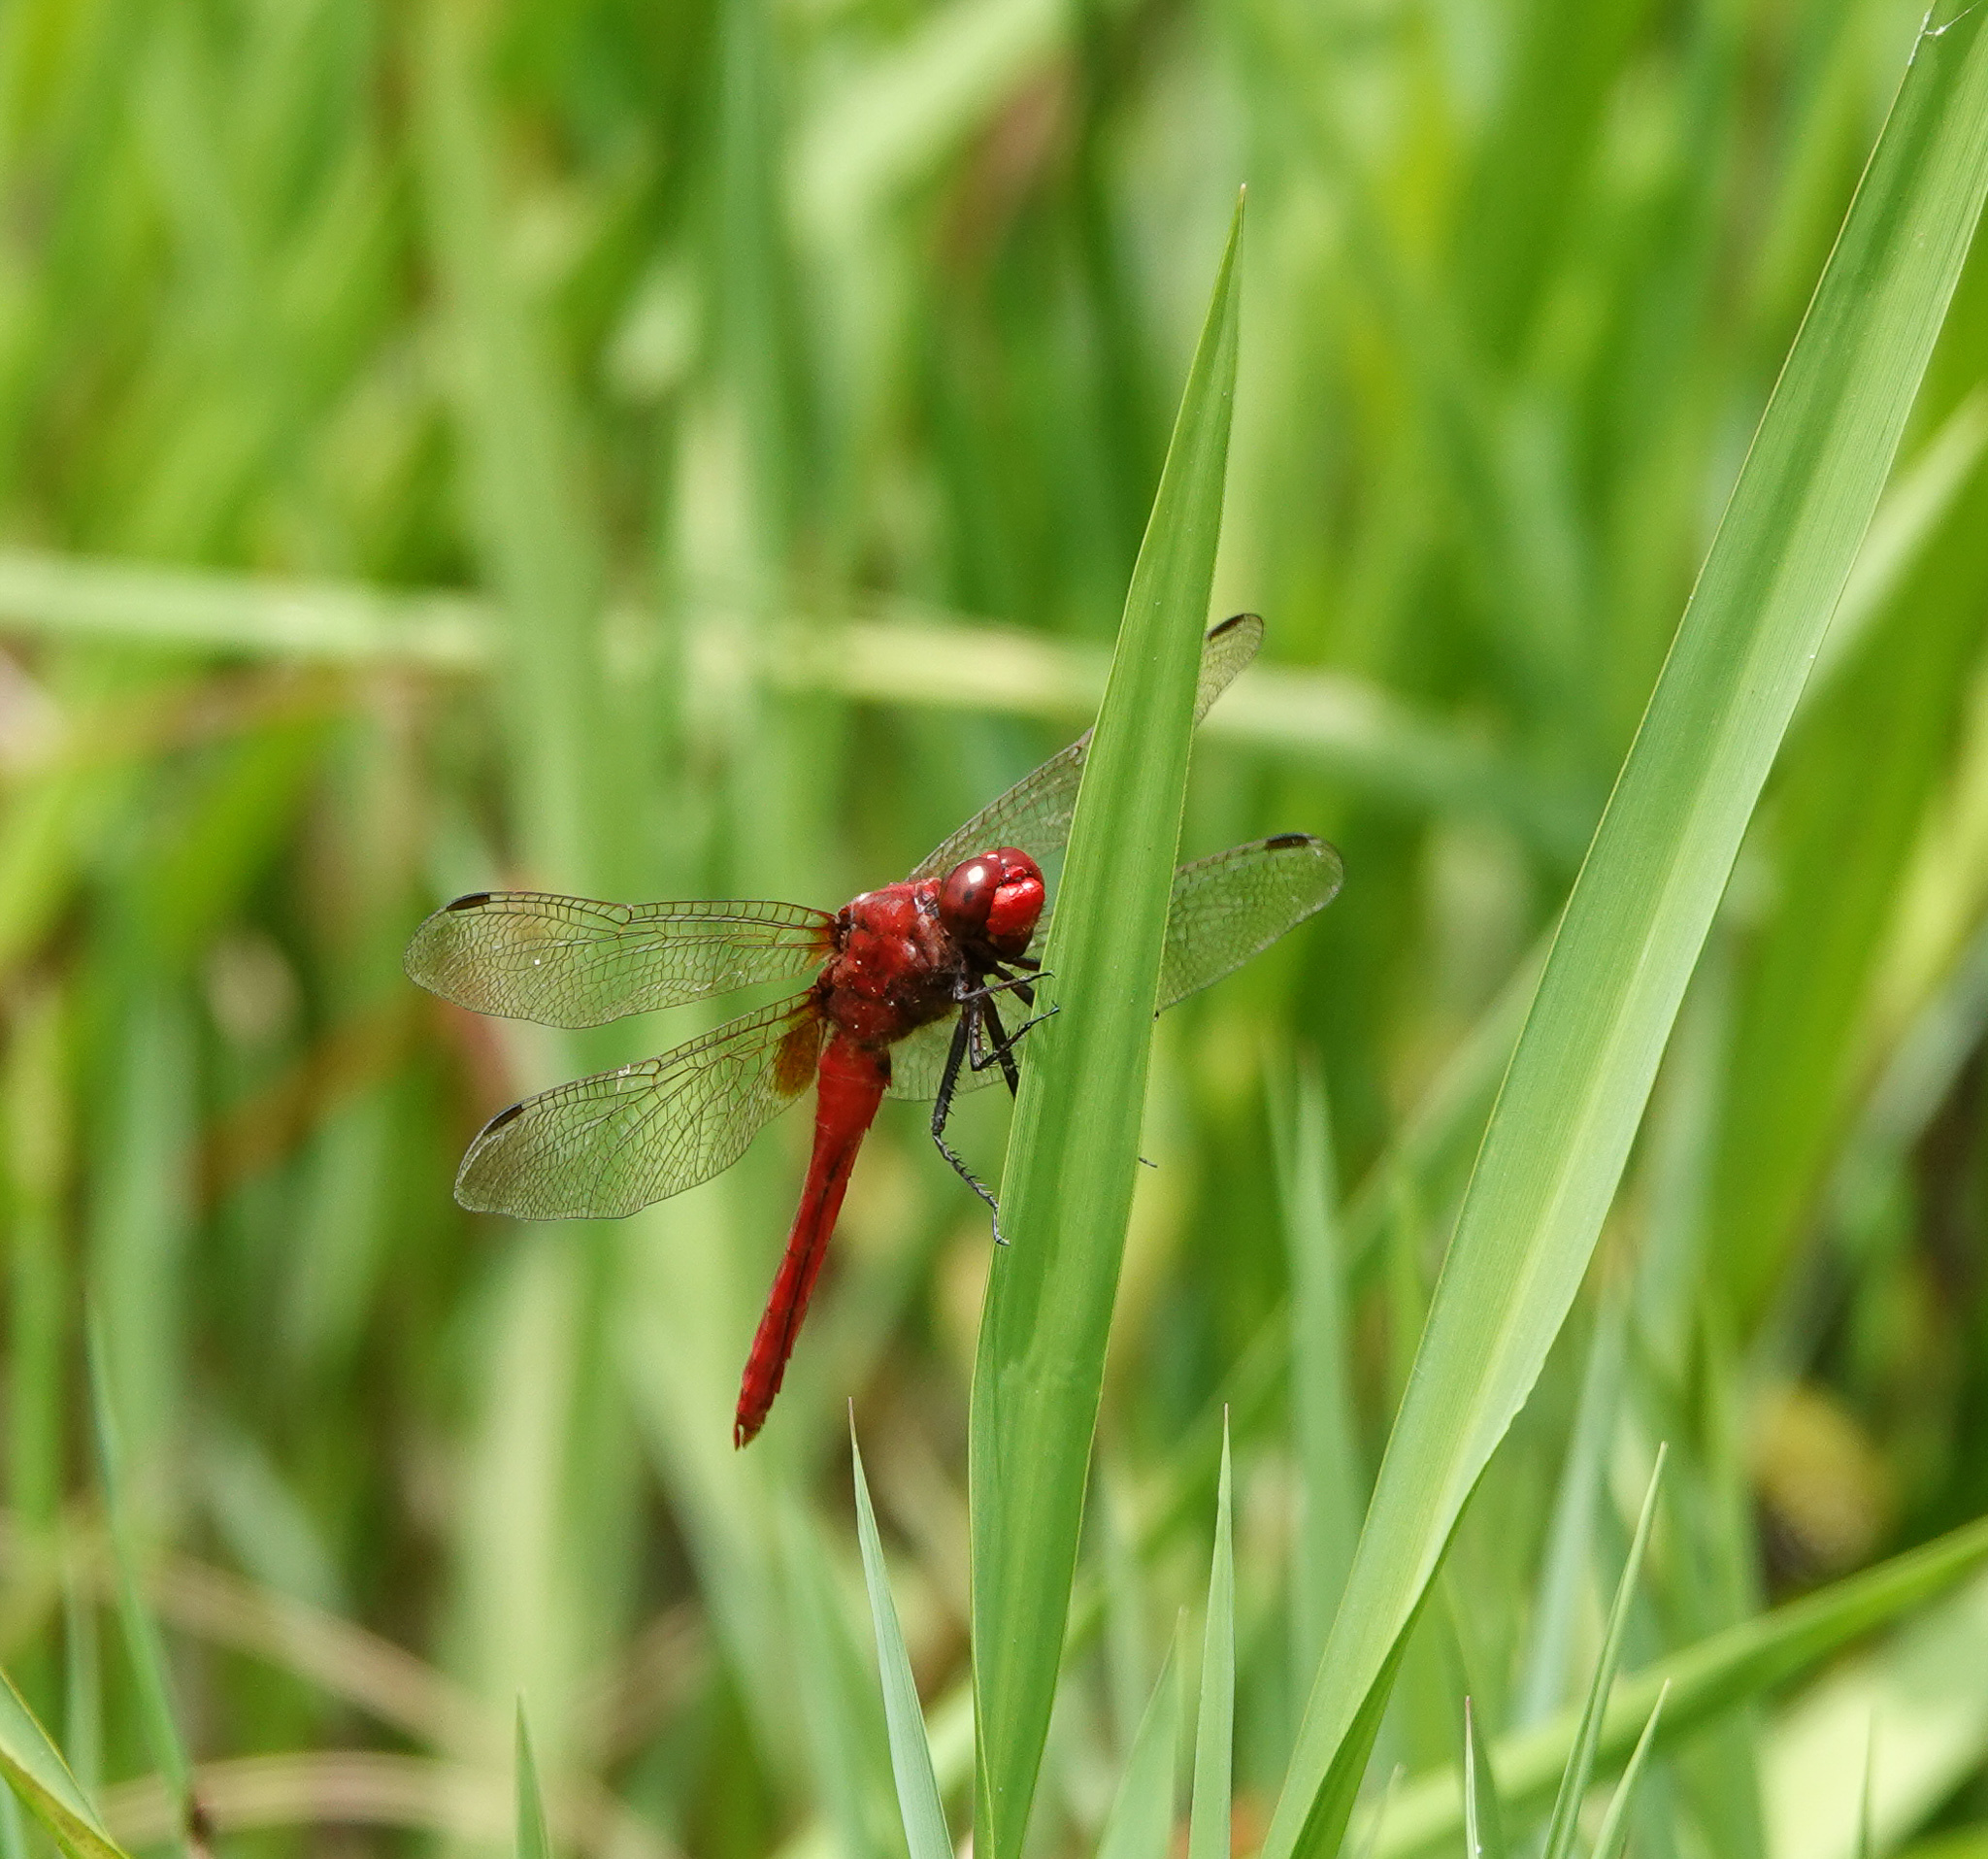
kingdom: Animalia
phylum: Arthropoda
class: Insecta
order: Odonata
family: Libellulidae
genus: Crocothemis
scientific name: Crocothemis servilia
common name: Scarlet skimmer
